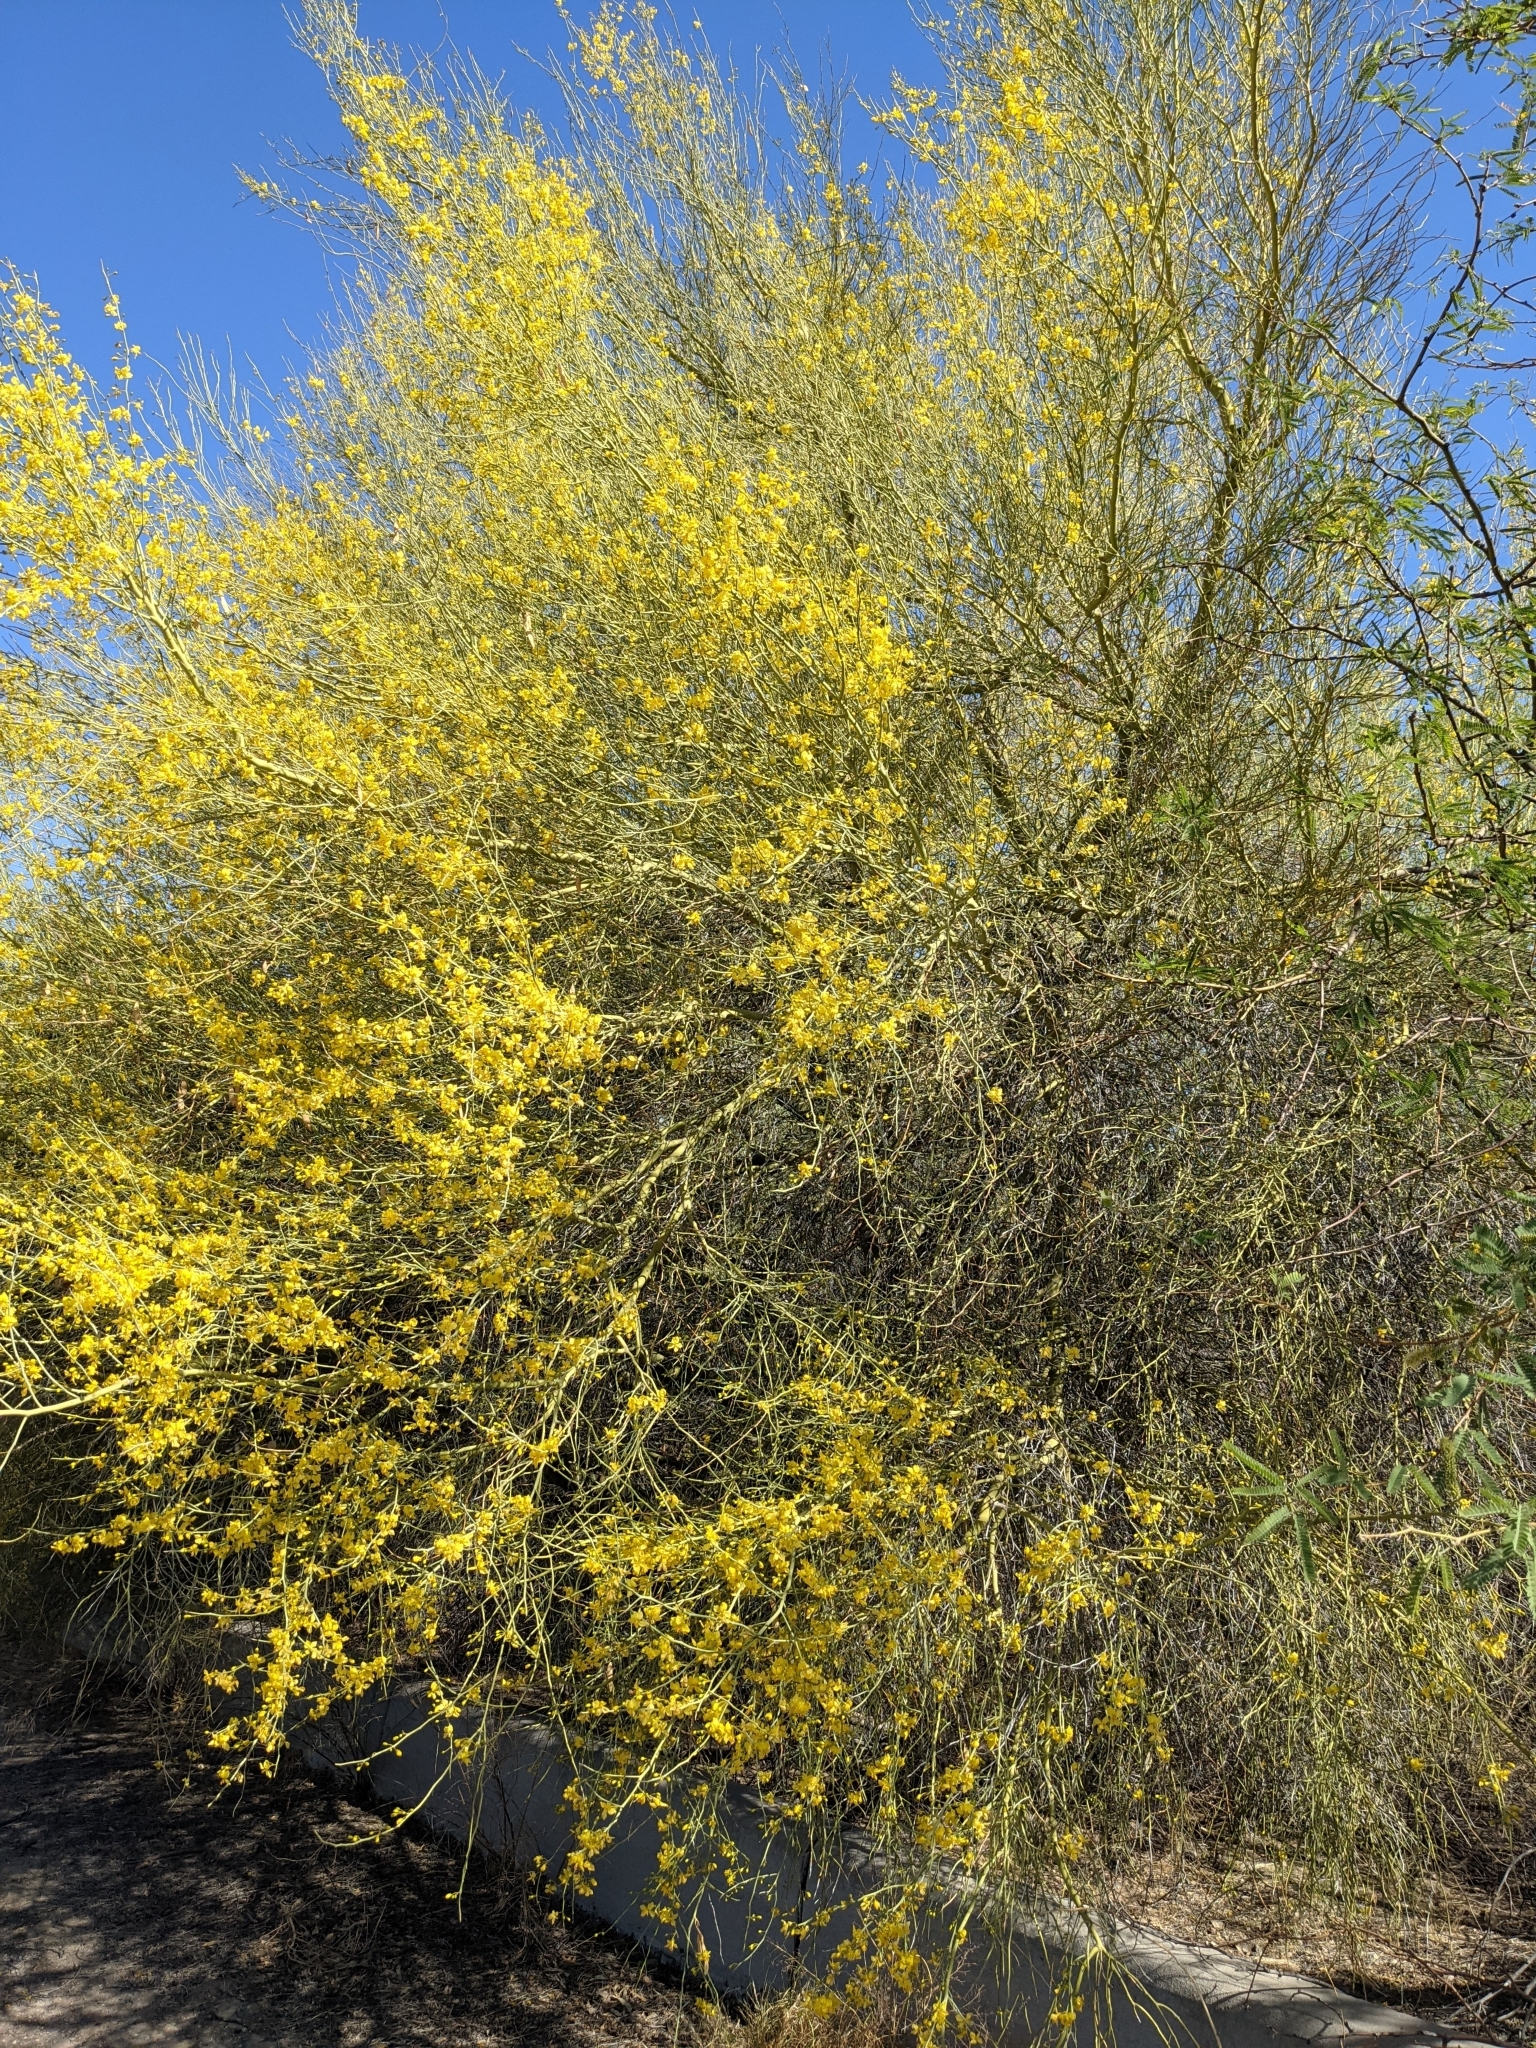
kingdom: Plantae
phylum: Tracheophyta
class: Magnoliopsida
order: Fabales
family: Fabaceae
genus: Parkinsonia
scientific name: Parkinsonia florida
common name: Blue paloverde
